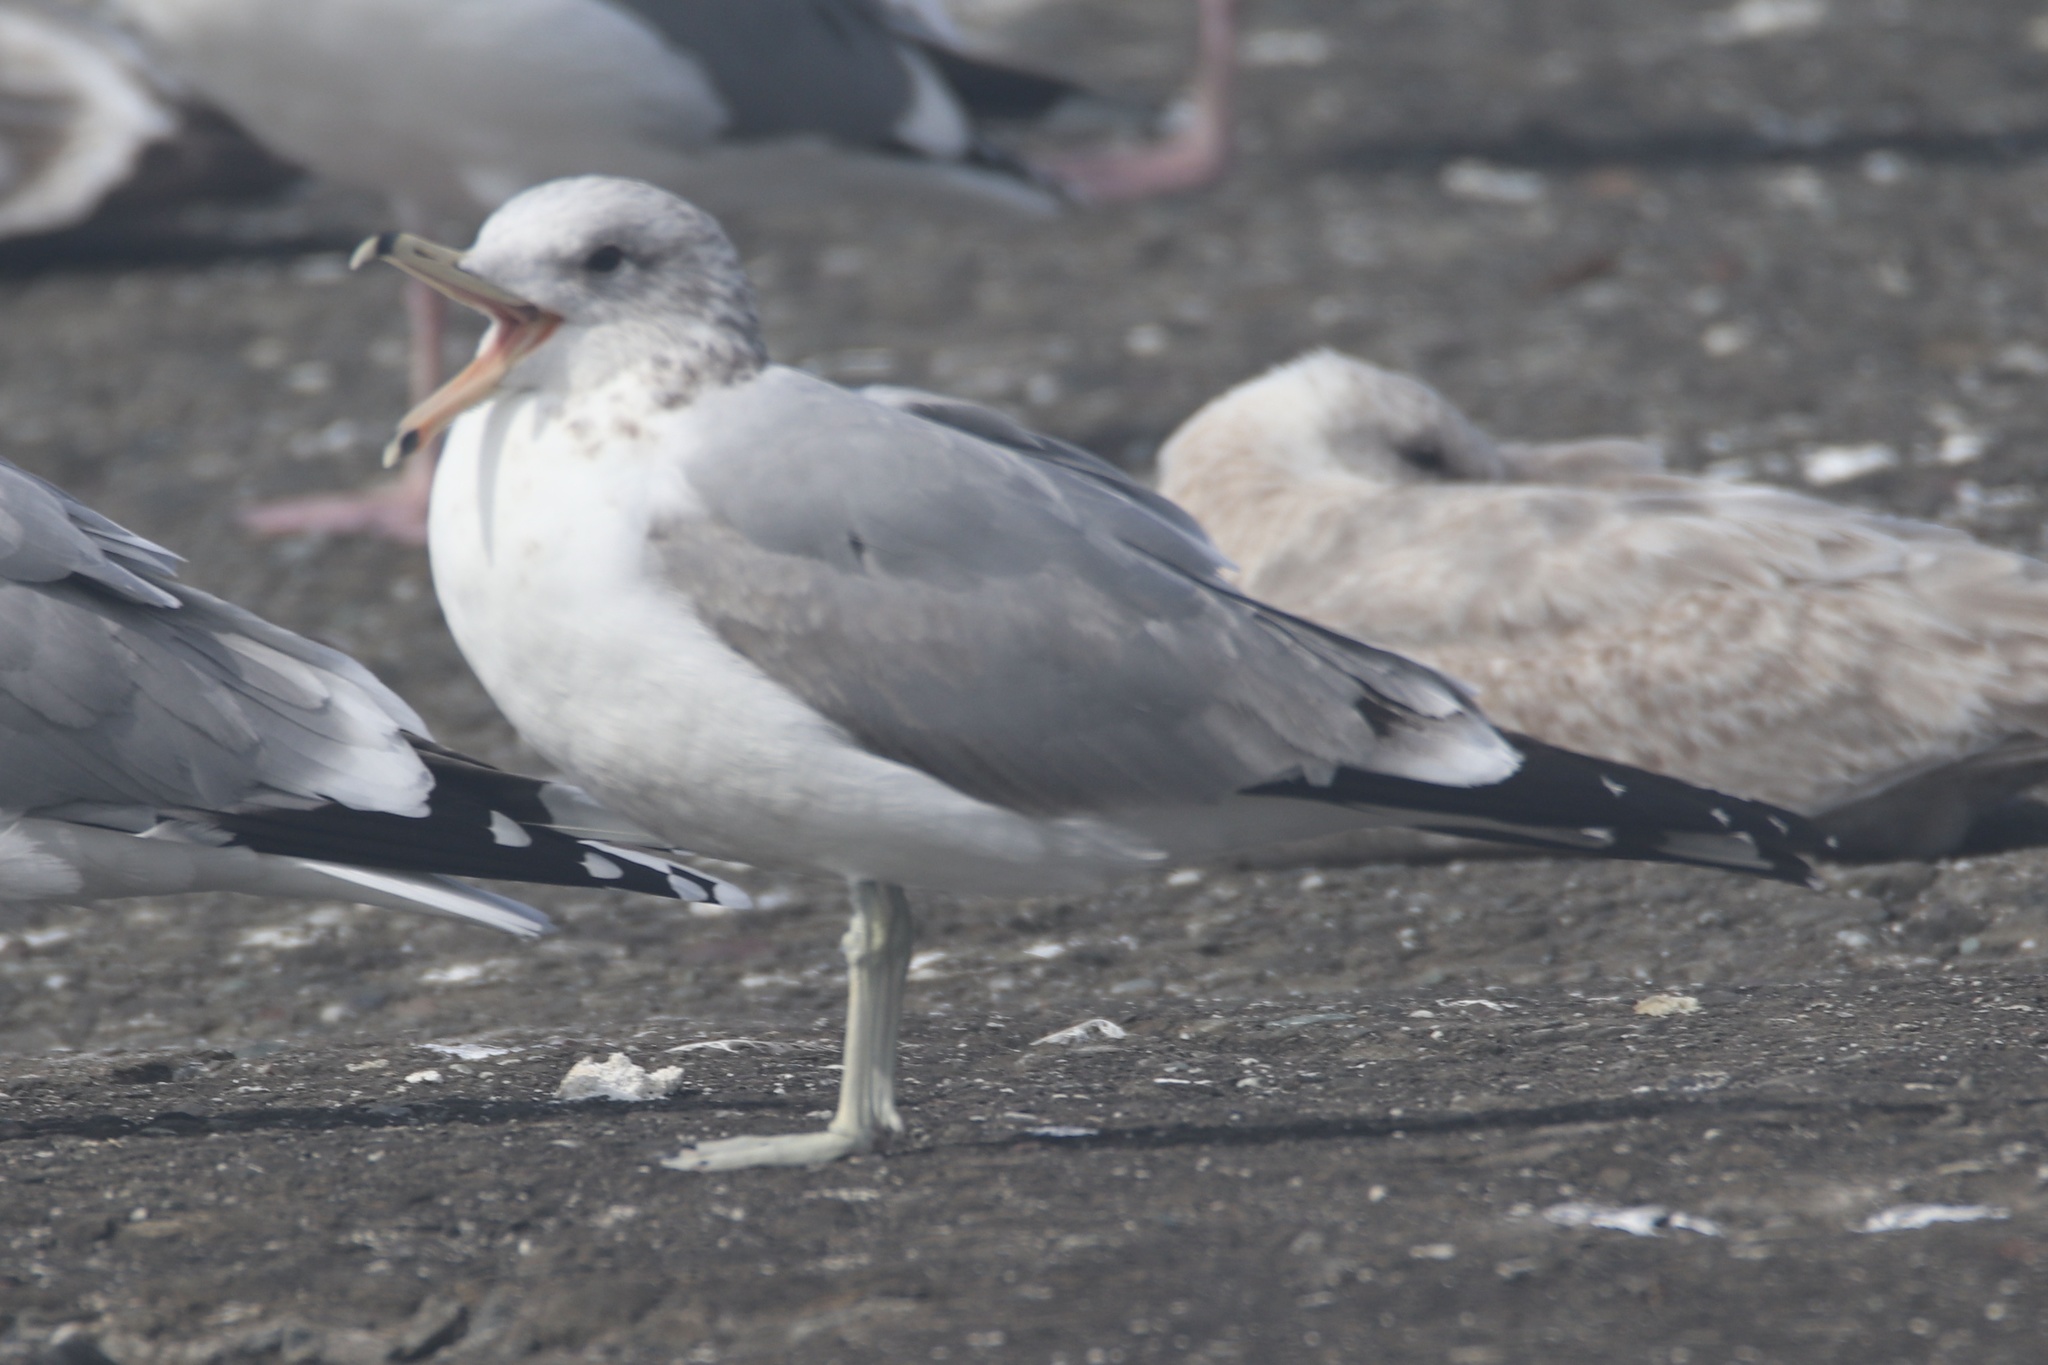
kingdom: Animalia
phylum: Chordata
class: Aves
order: Charadriiformes
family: Laridae
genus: Larus
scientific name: Larus californicus
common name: California gull
